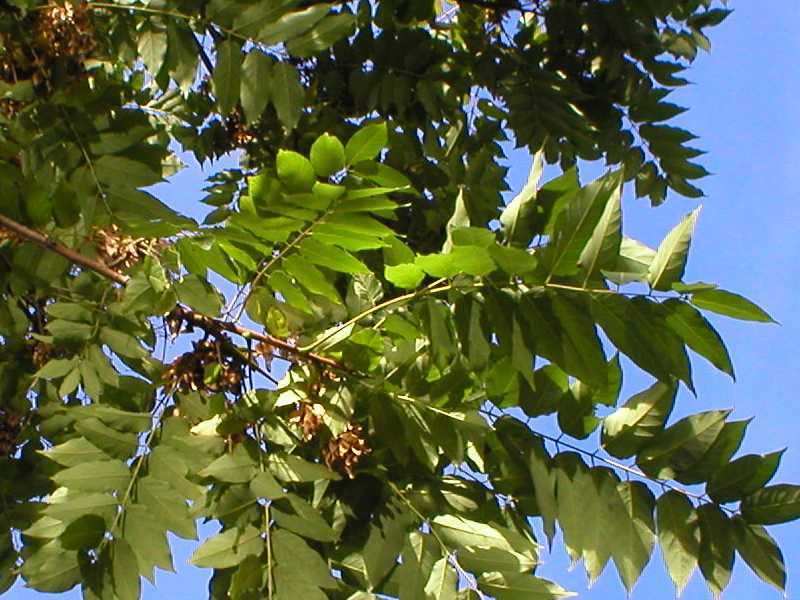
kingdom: Plantae
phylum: Tracheophyta
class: Magnoliopsida
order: Sapindales
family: Simaroubaceae
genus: Ailanthus
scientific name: Ailanthus altissima
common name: Tree-of-heaven
